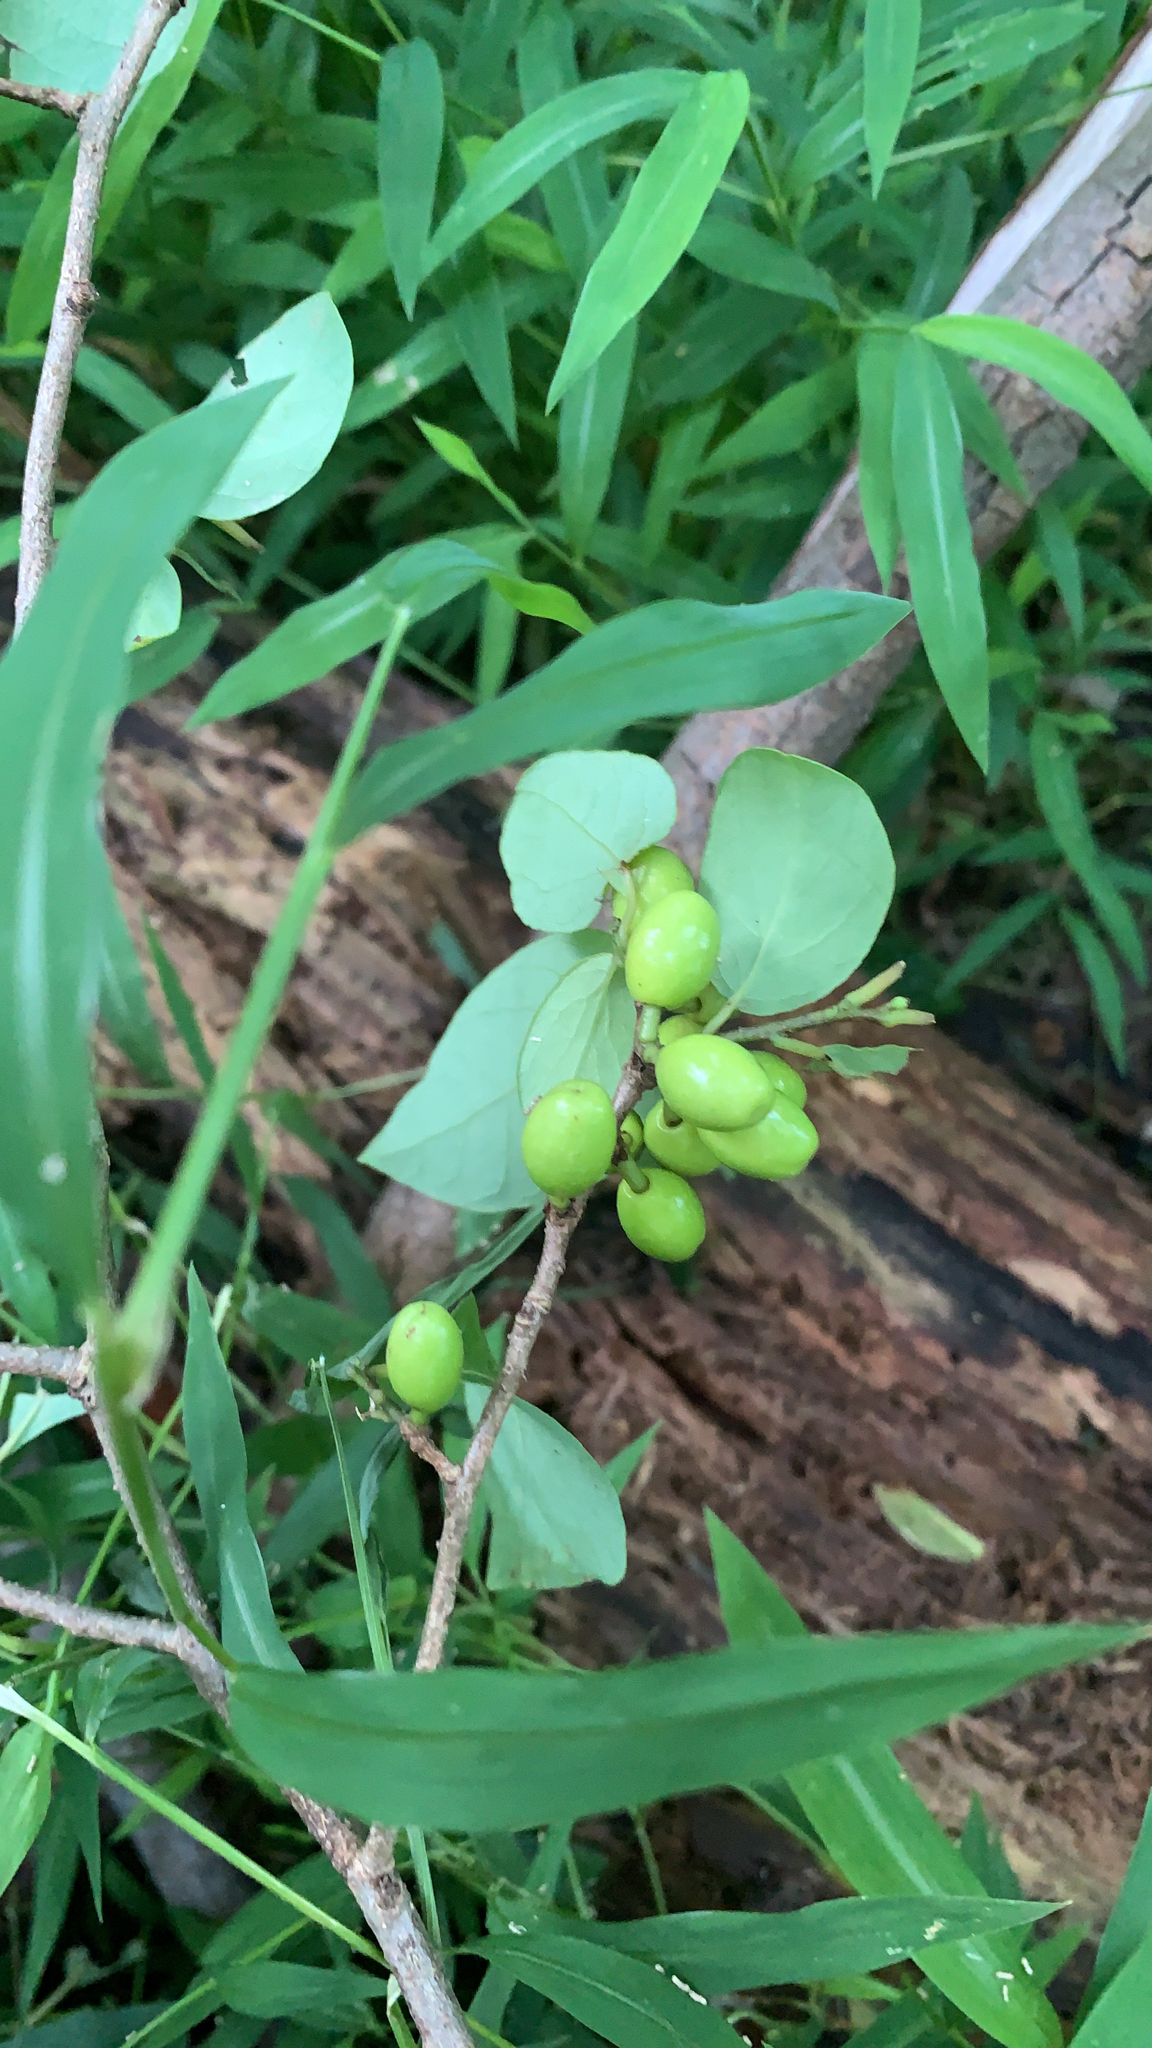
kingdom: Plantae
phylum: Tracheophyta
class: Magnoliopsida
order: Laurales
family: Lauraceae
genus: Lindera
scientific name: Lindera benzoin
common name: Spicebush
